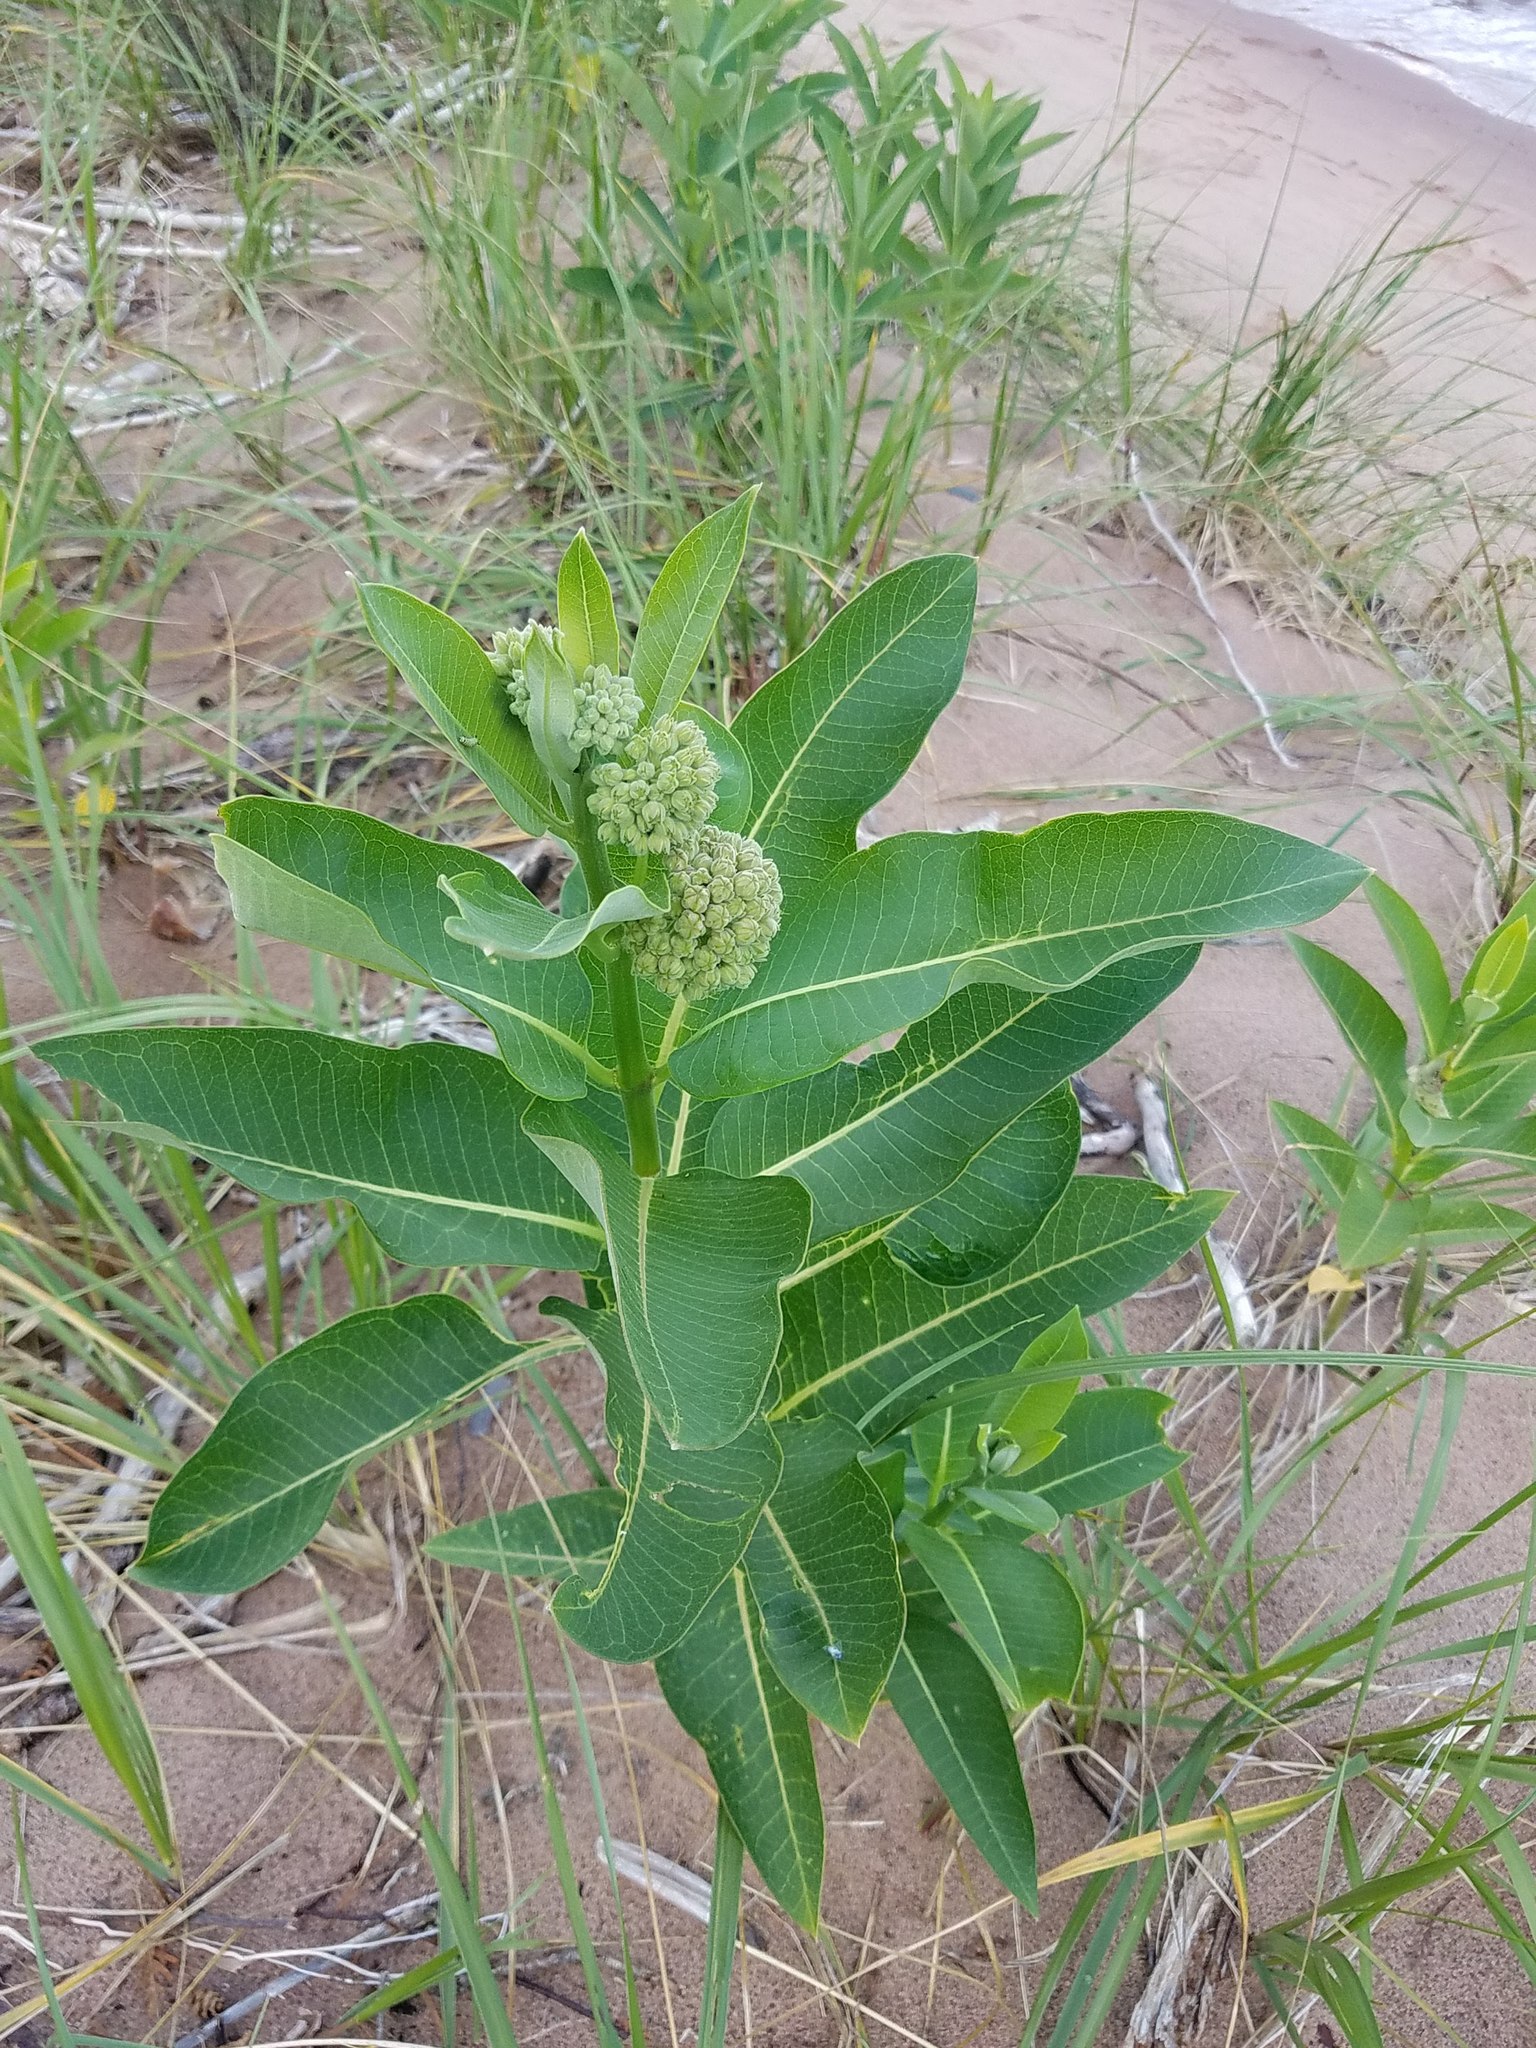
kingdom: Plantae
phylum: Tracheophyta
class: Magnoliopsida
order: Gentianales
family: Apocynaceae
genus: Asclepias
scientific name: Asclepias syriaca
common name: Common milkweed
